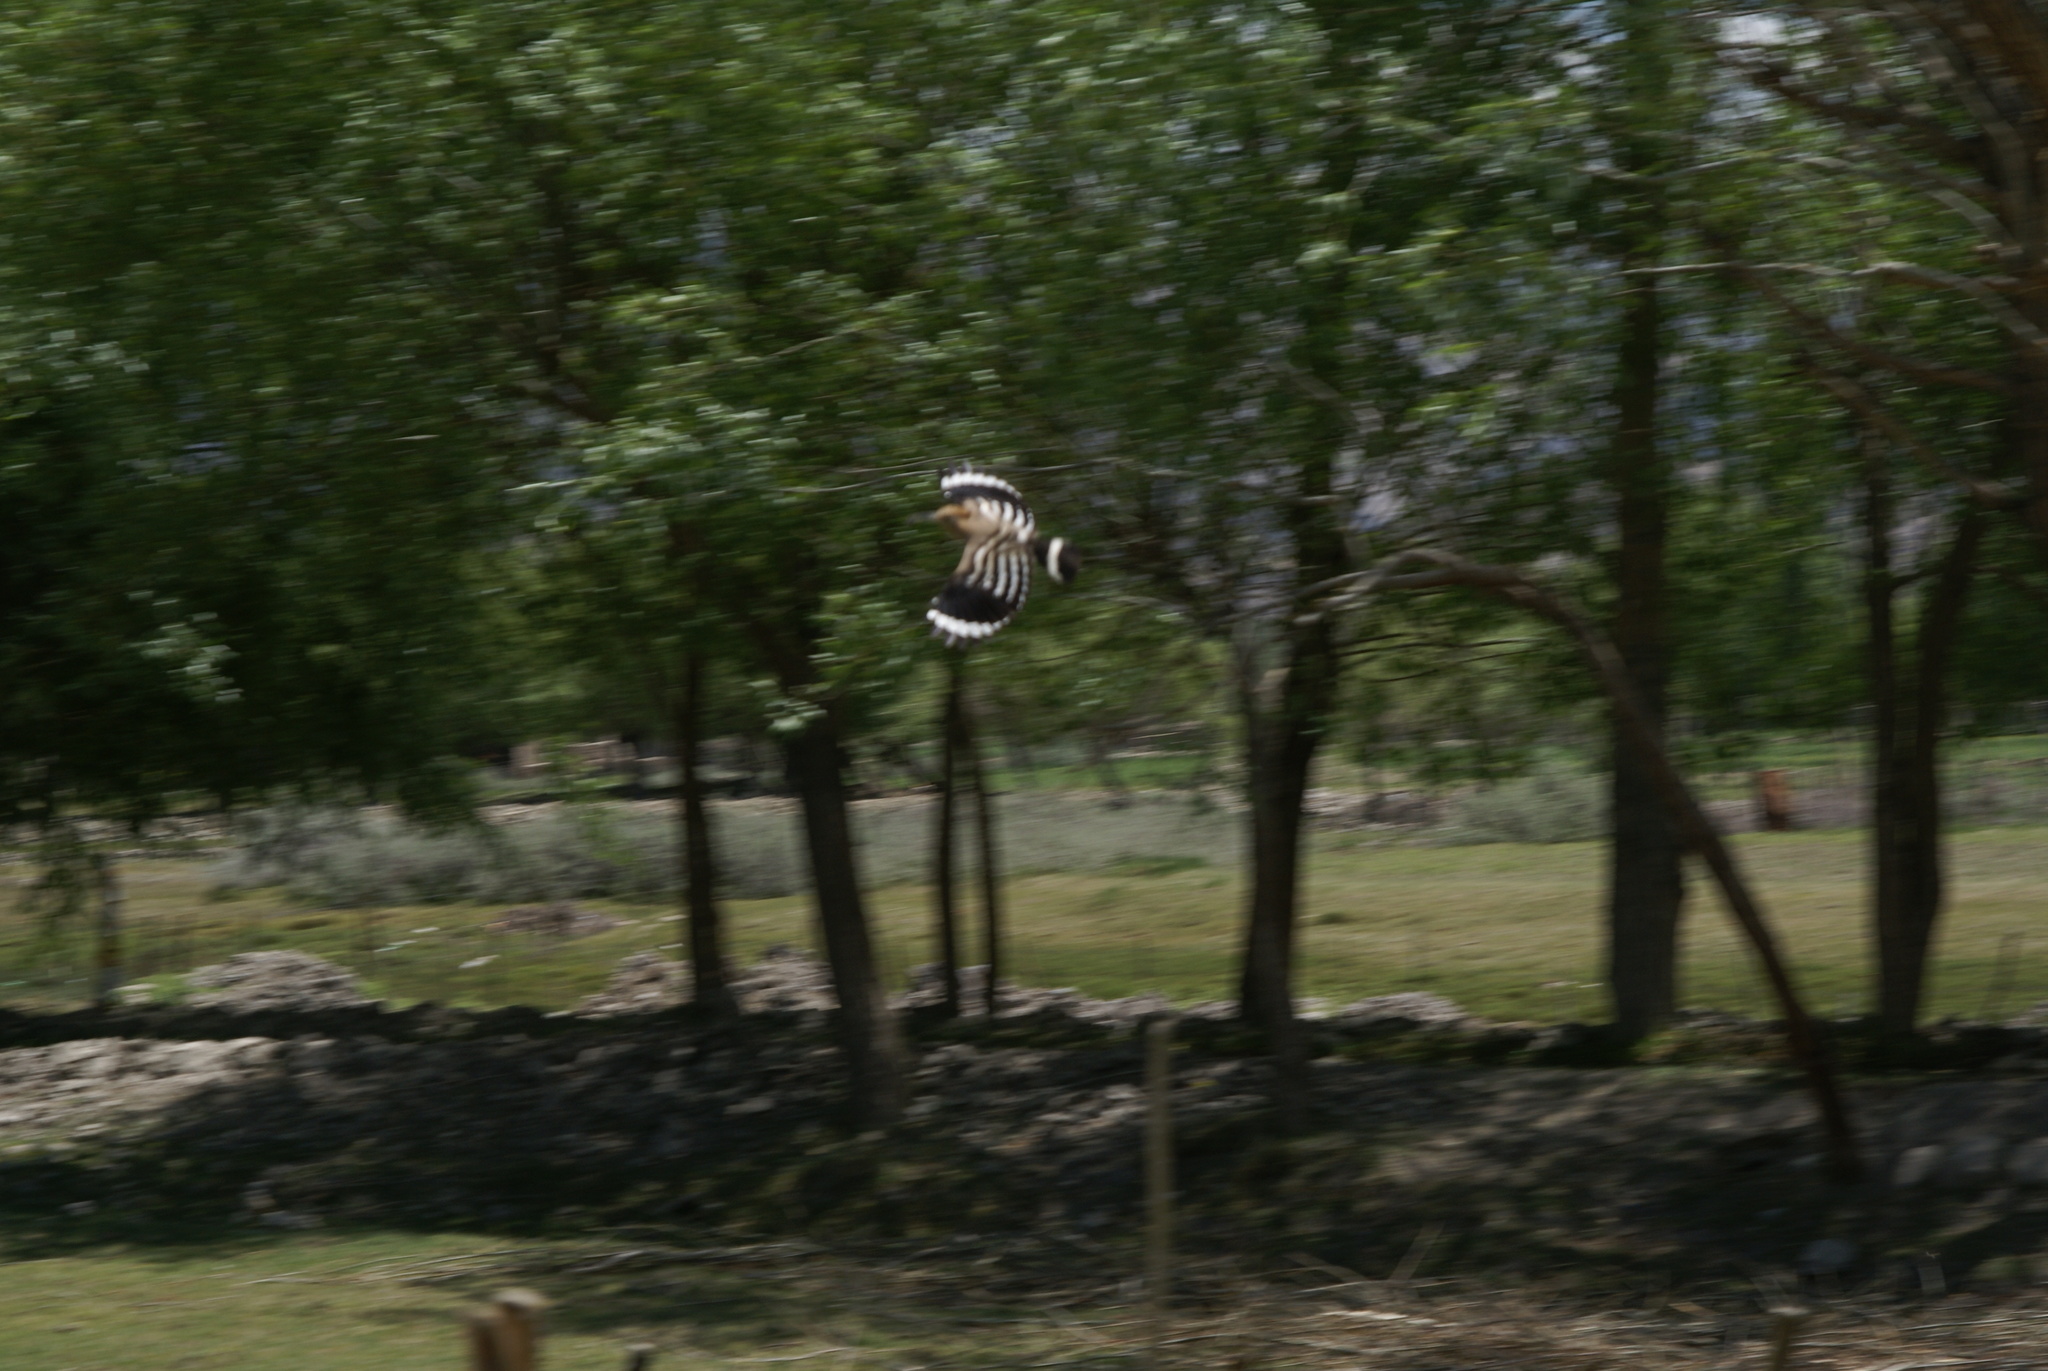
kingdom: Animalia
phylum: Chordata
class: Aves
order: Bucerotiformes
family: Upupidae
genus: Upupa
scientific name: Upupa epops
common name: Eurasian hoopoe
